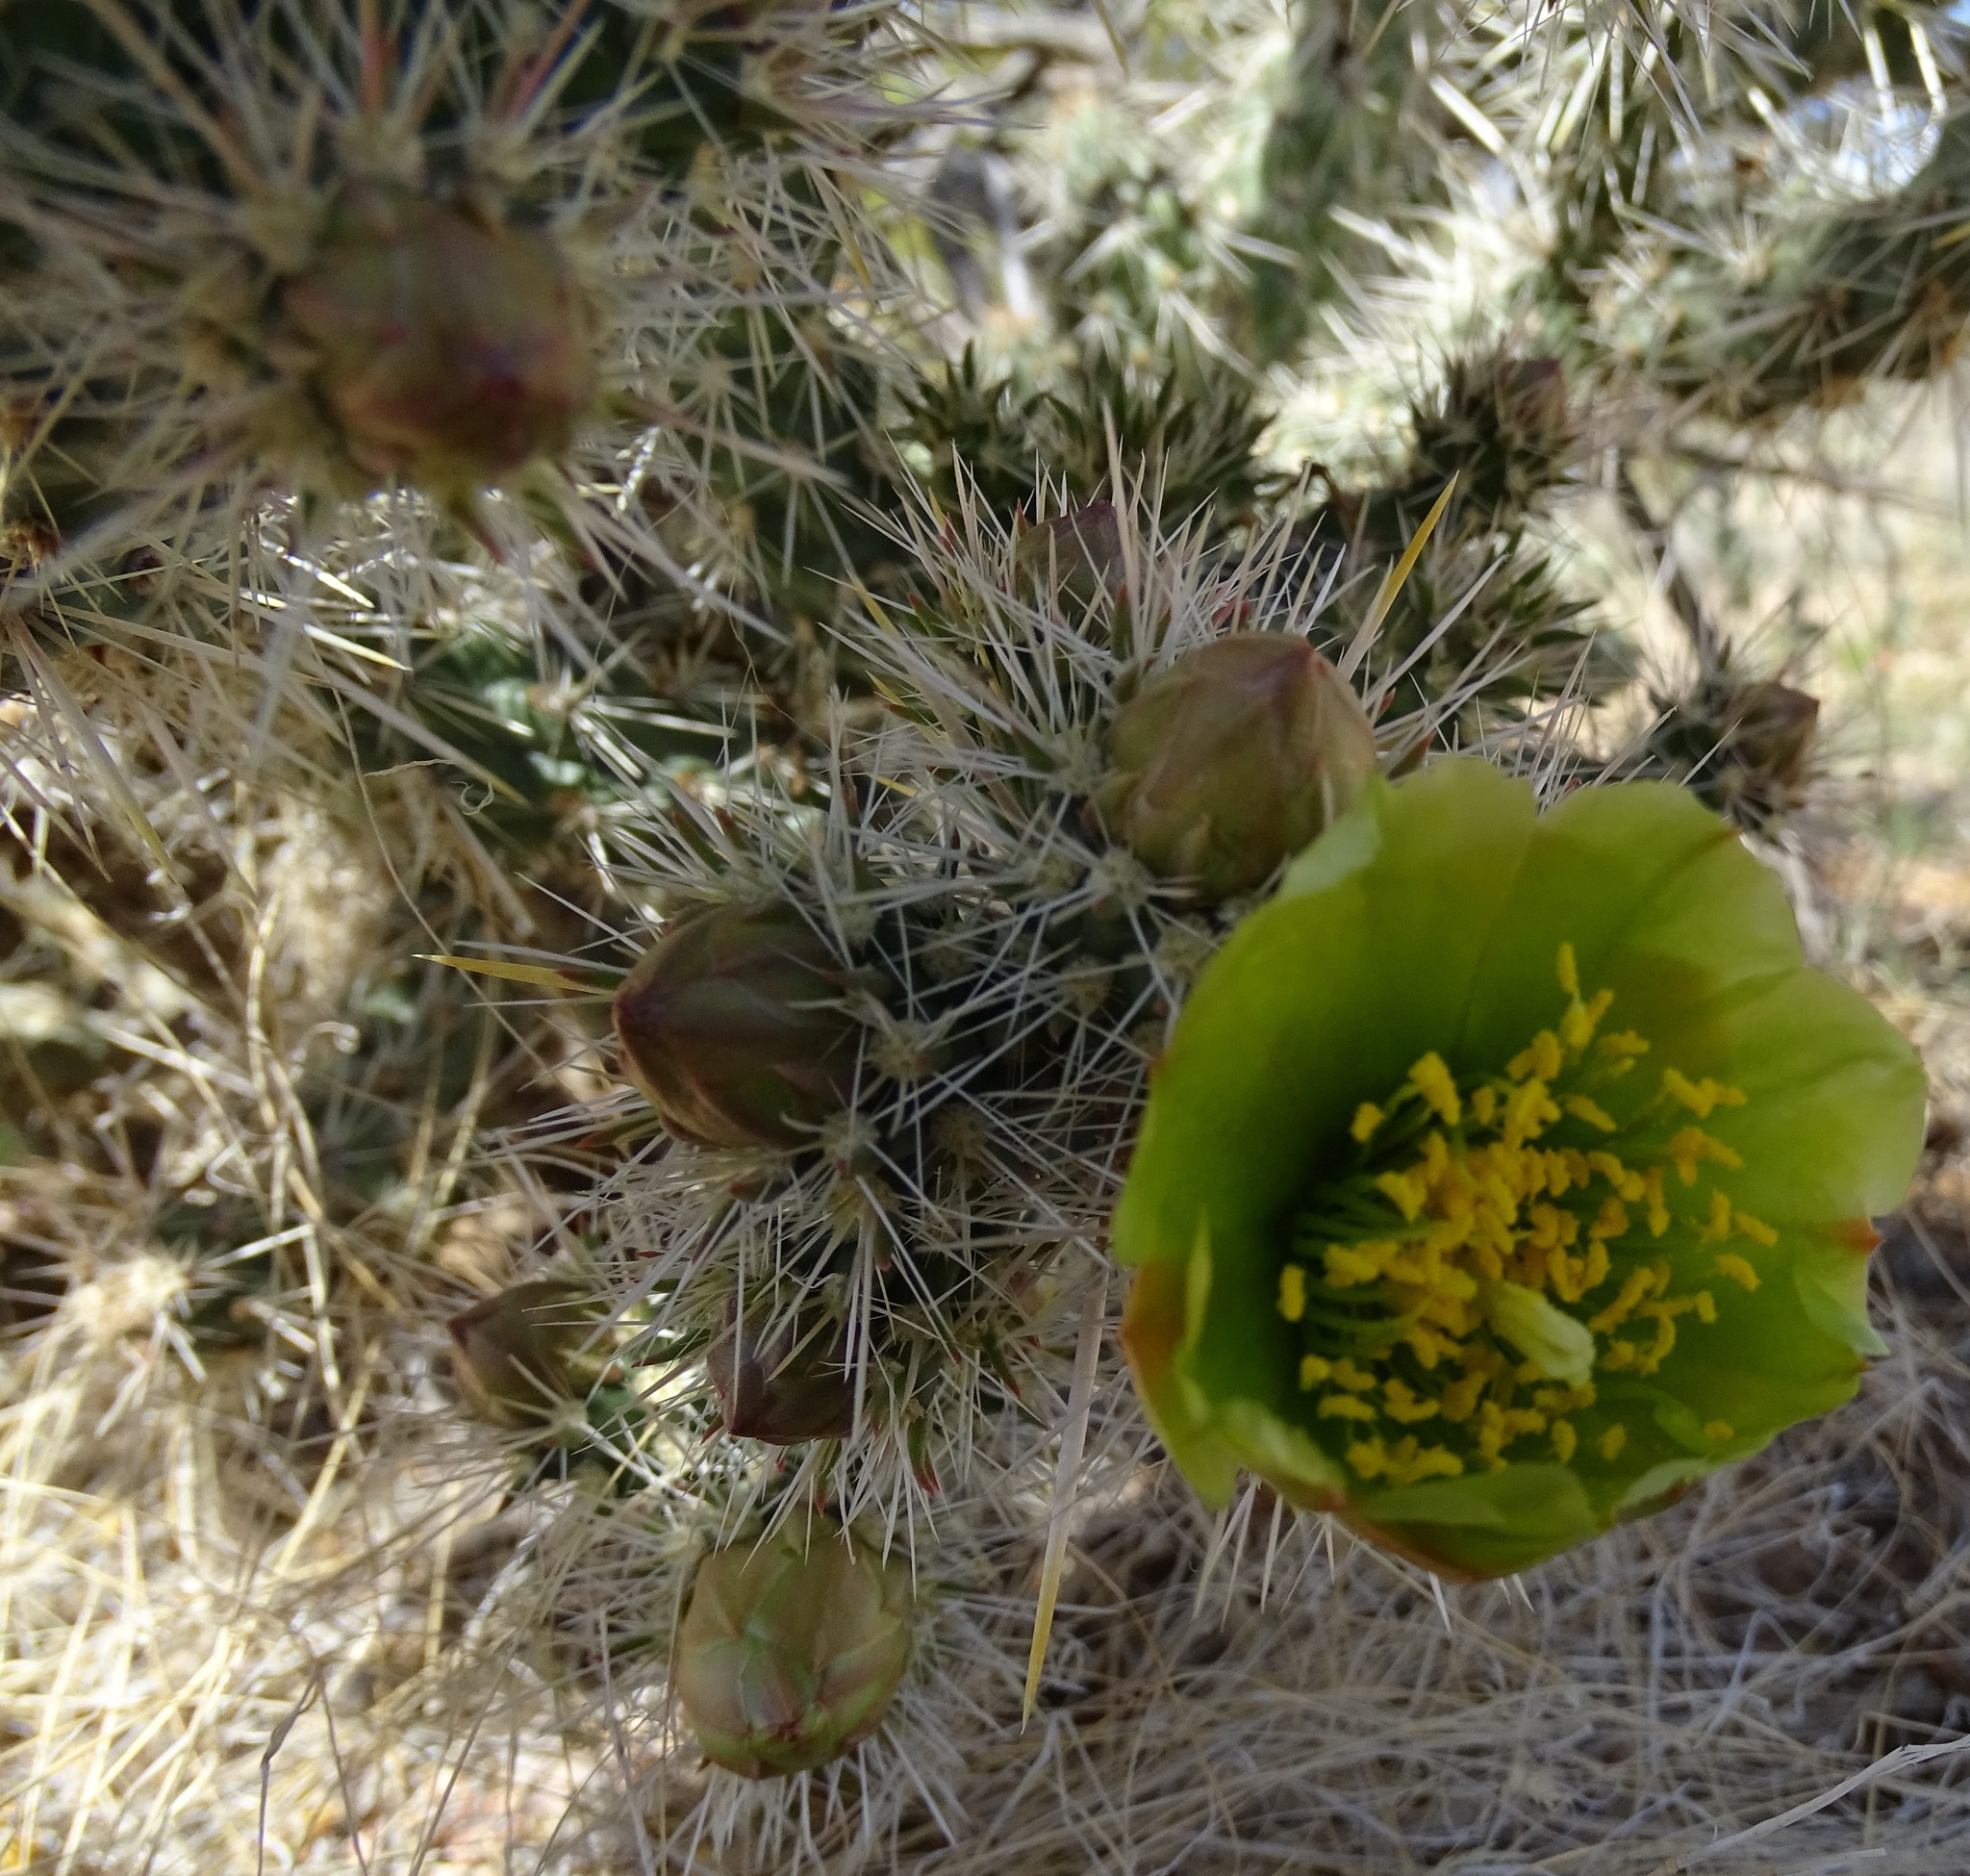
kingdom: Plantae
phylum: Tracheophyta
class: Magnoliopsida
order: Caryophyllales
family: Cactaceae
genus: Cylindropuntia
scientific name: Cylindropuntia echinocarpa
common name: Ground cholla
